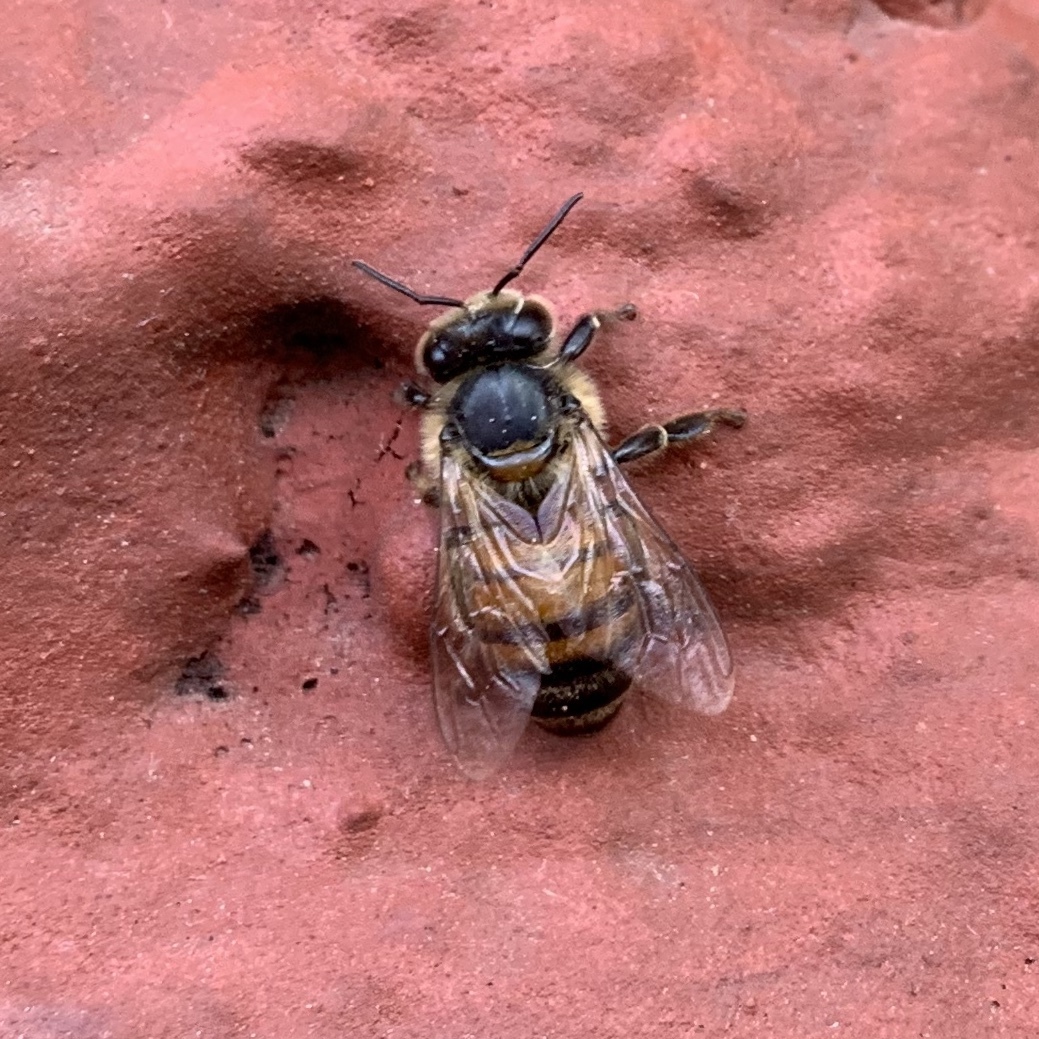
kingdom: Animalia
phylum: Arthropoda
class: Insecta
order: Hymenoptera
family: Apidae
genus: Apis
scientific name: Apis mellifera
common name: Honey bee
